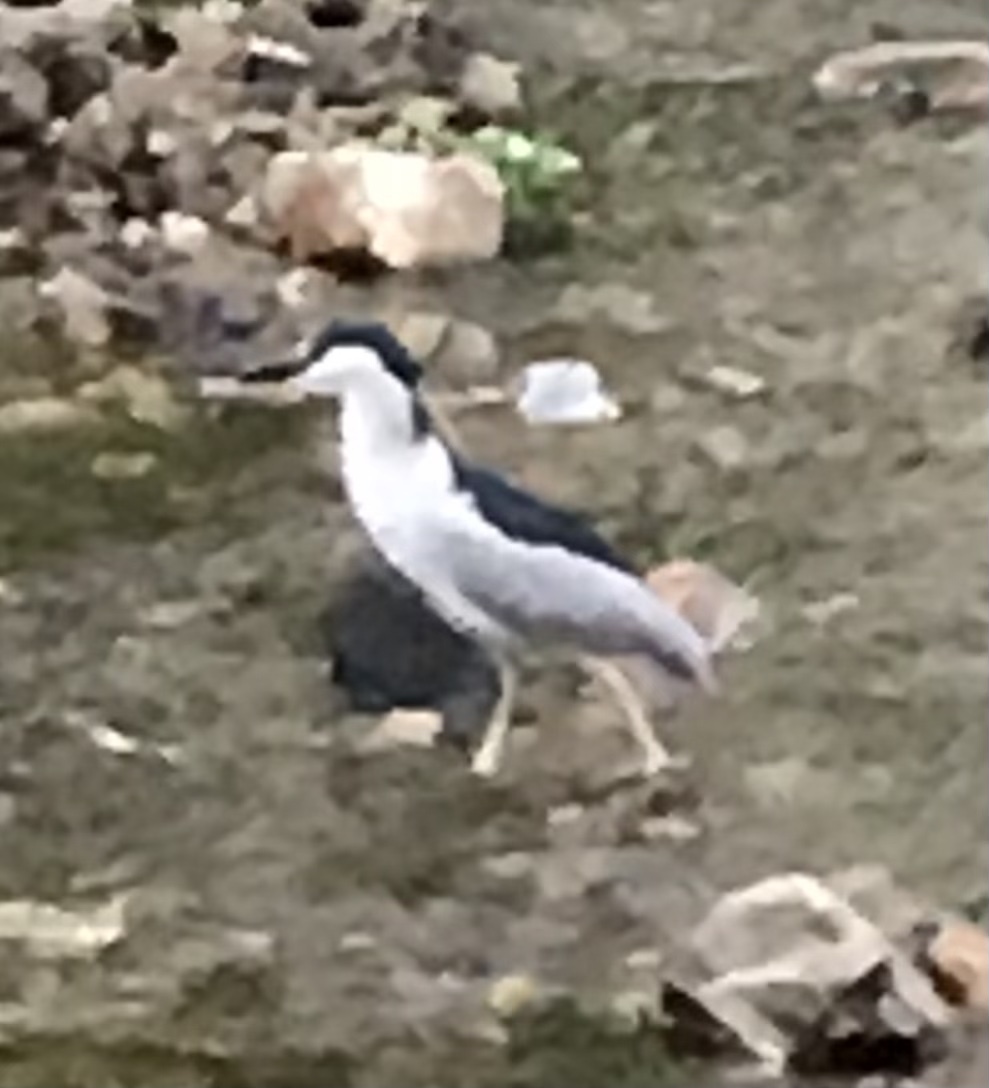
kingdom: Animalia
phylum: Chordata
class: Aves
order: Pelecaniformes
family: Ardeidae
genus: Nycticorax
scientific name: Nycticorax nycticorax
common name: Black-crowned night heron
